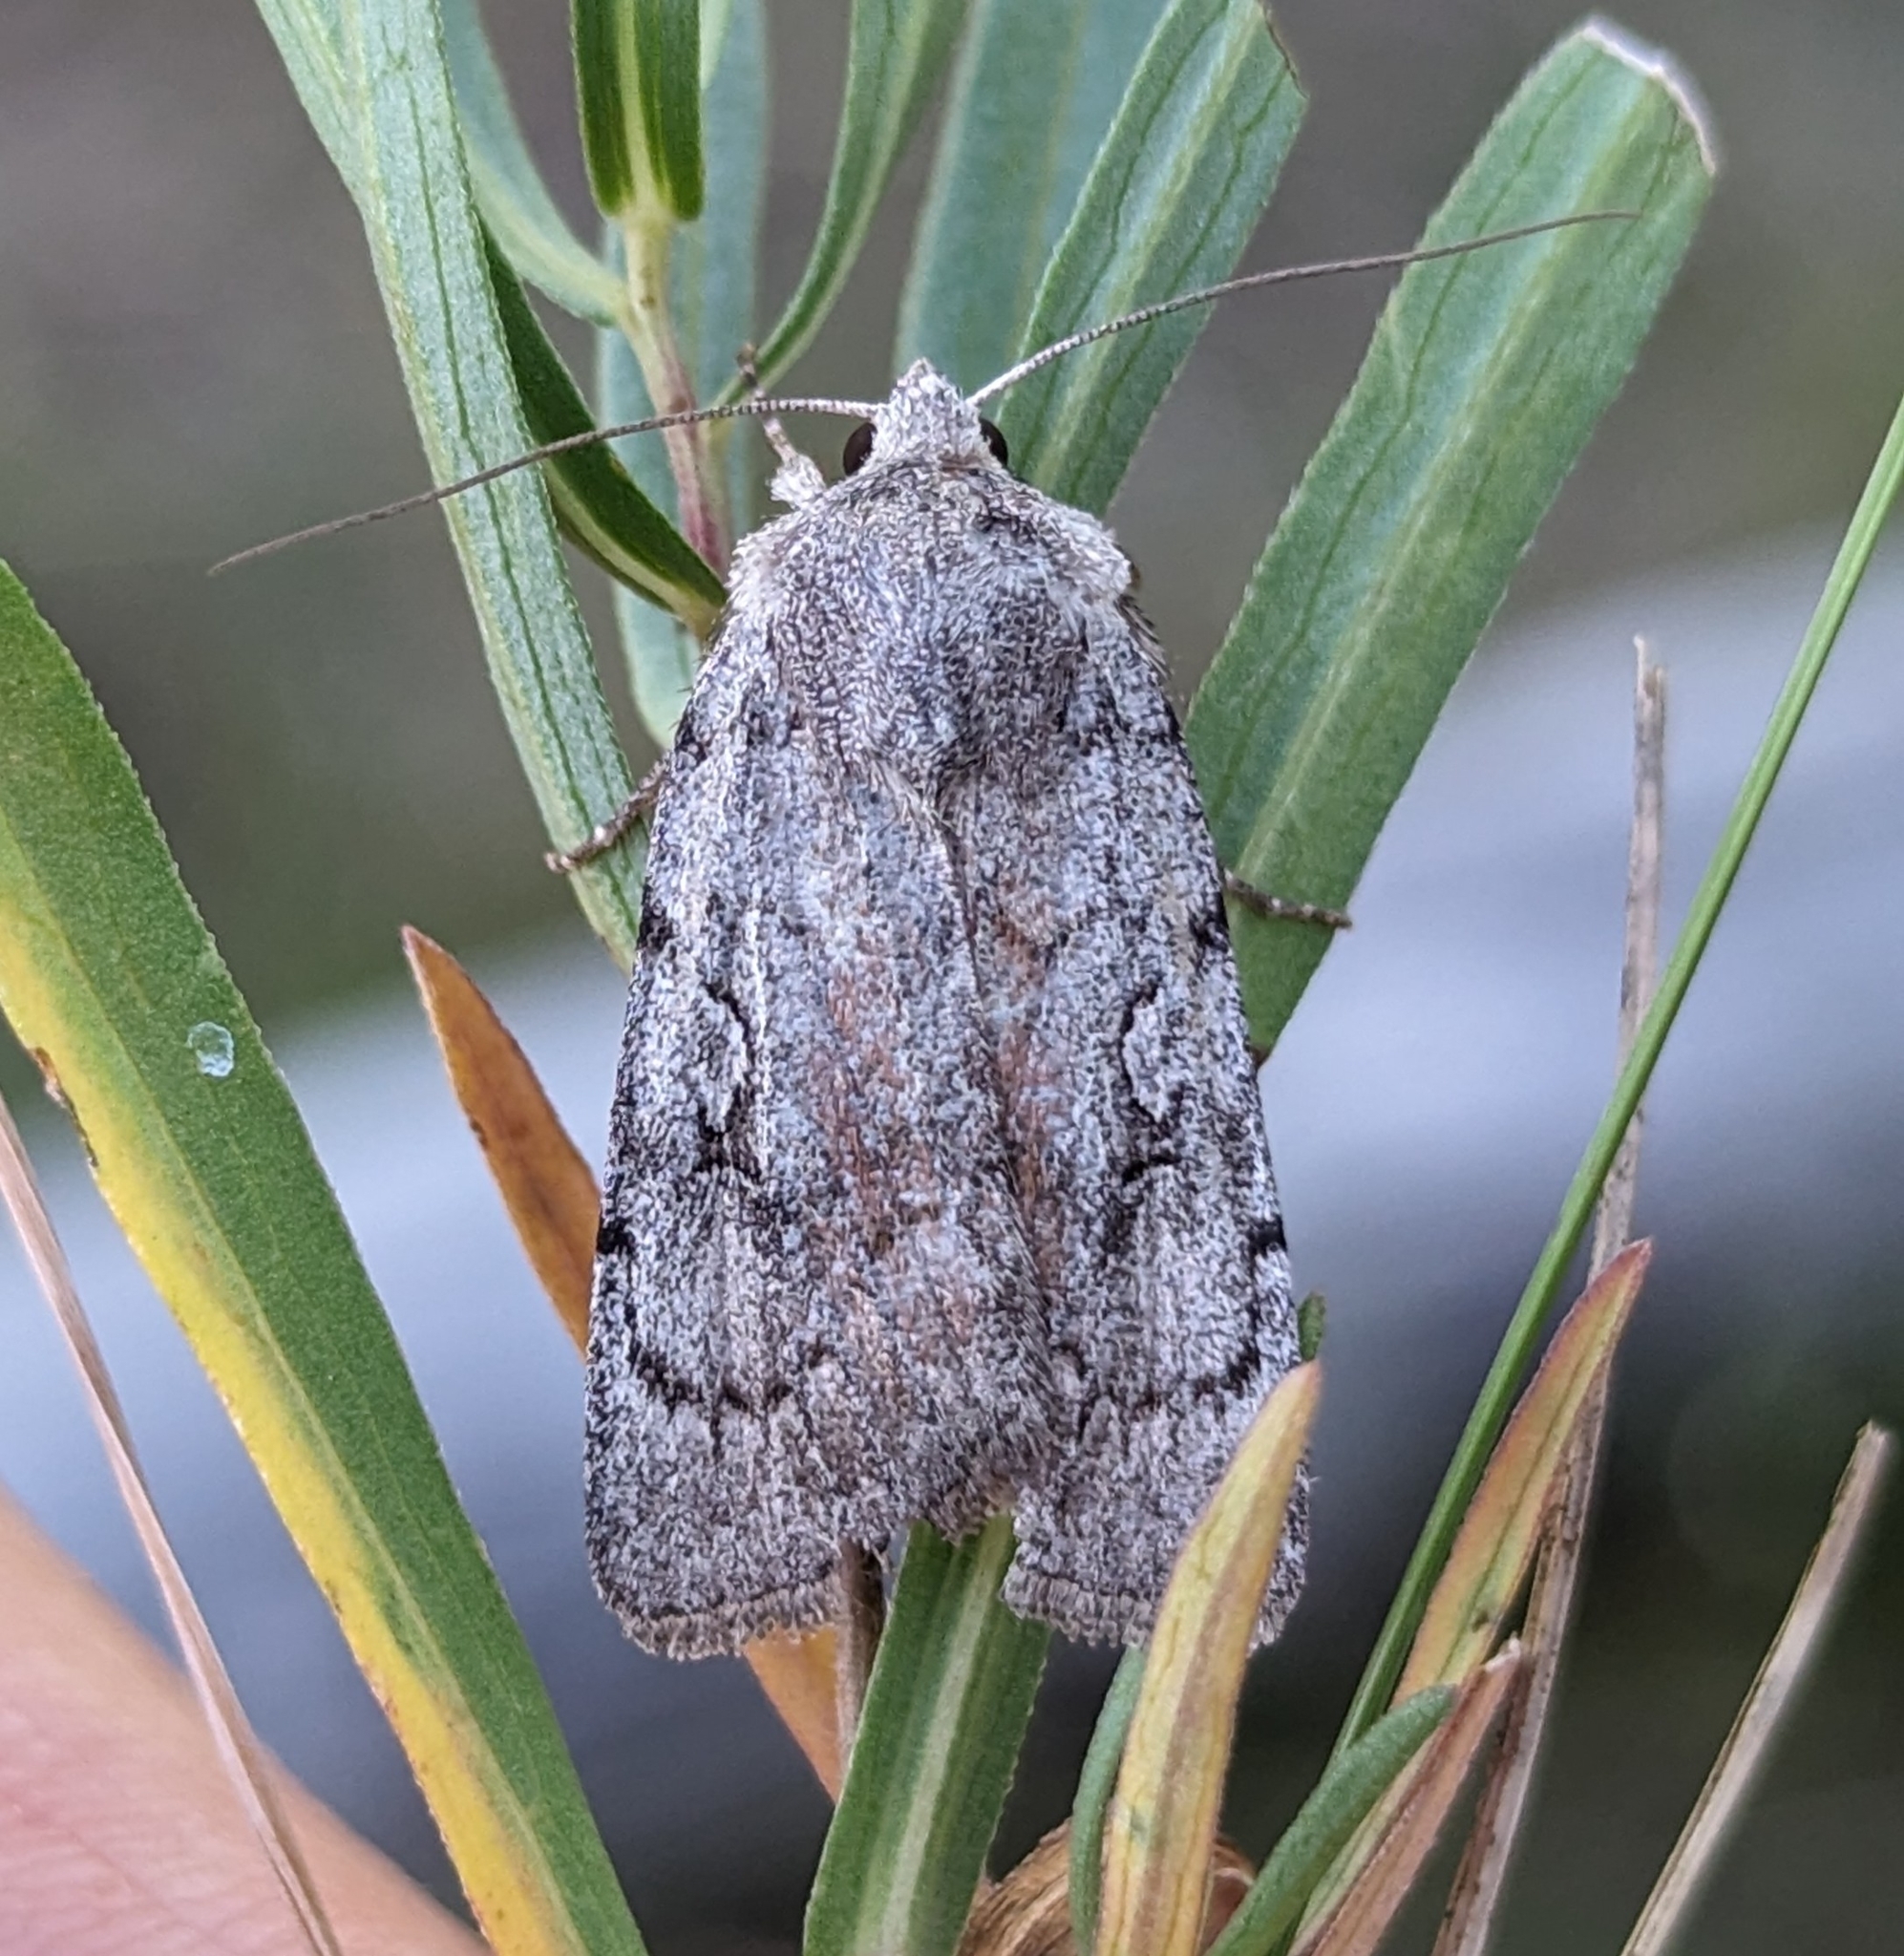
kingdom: Animalia
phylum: Arthropoda
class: Insecta
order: Lepidoptera
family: Noctuidae
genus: Setagrotis
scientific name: Setagrotis pallidicollis
